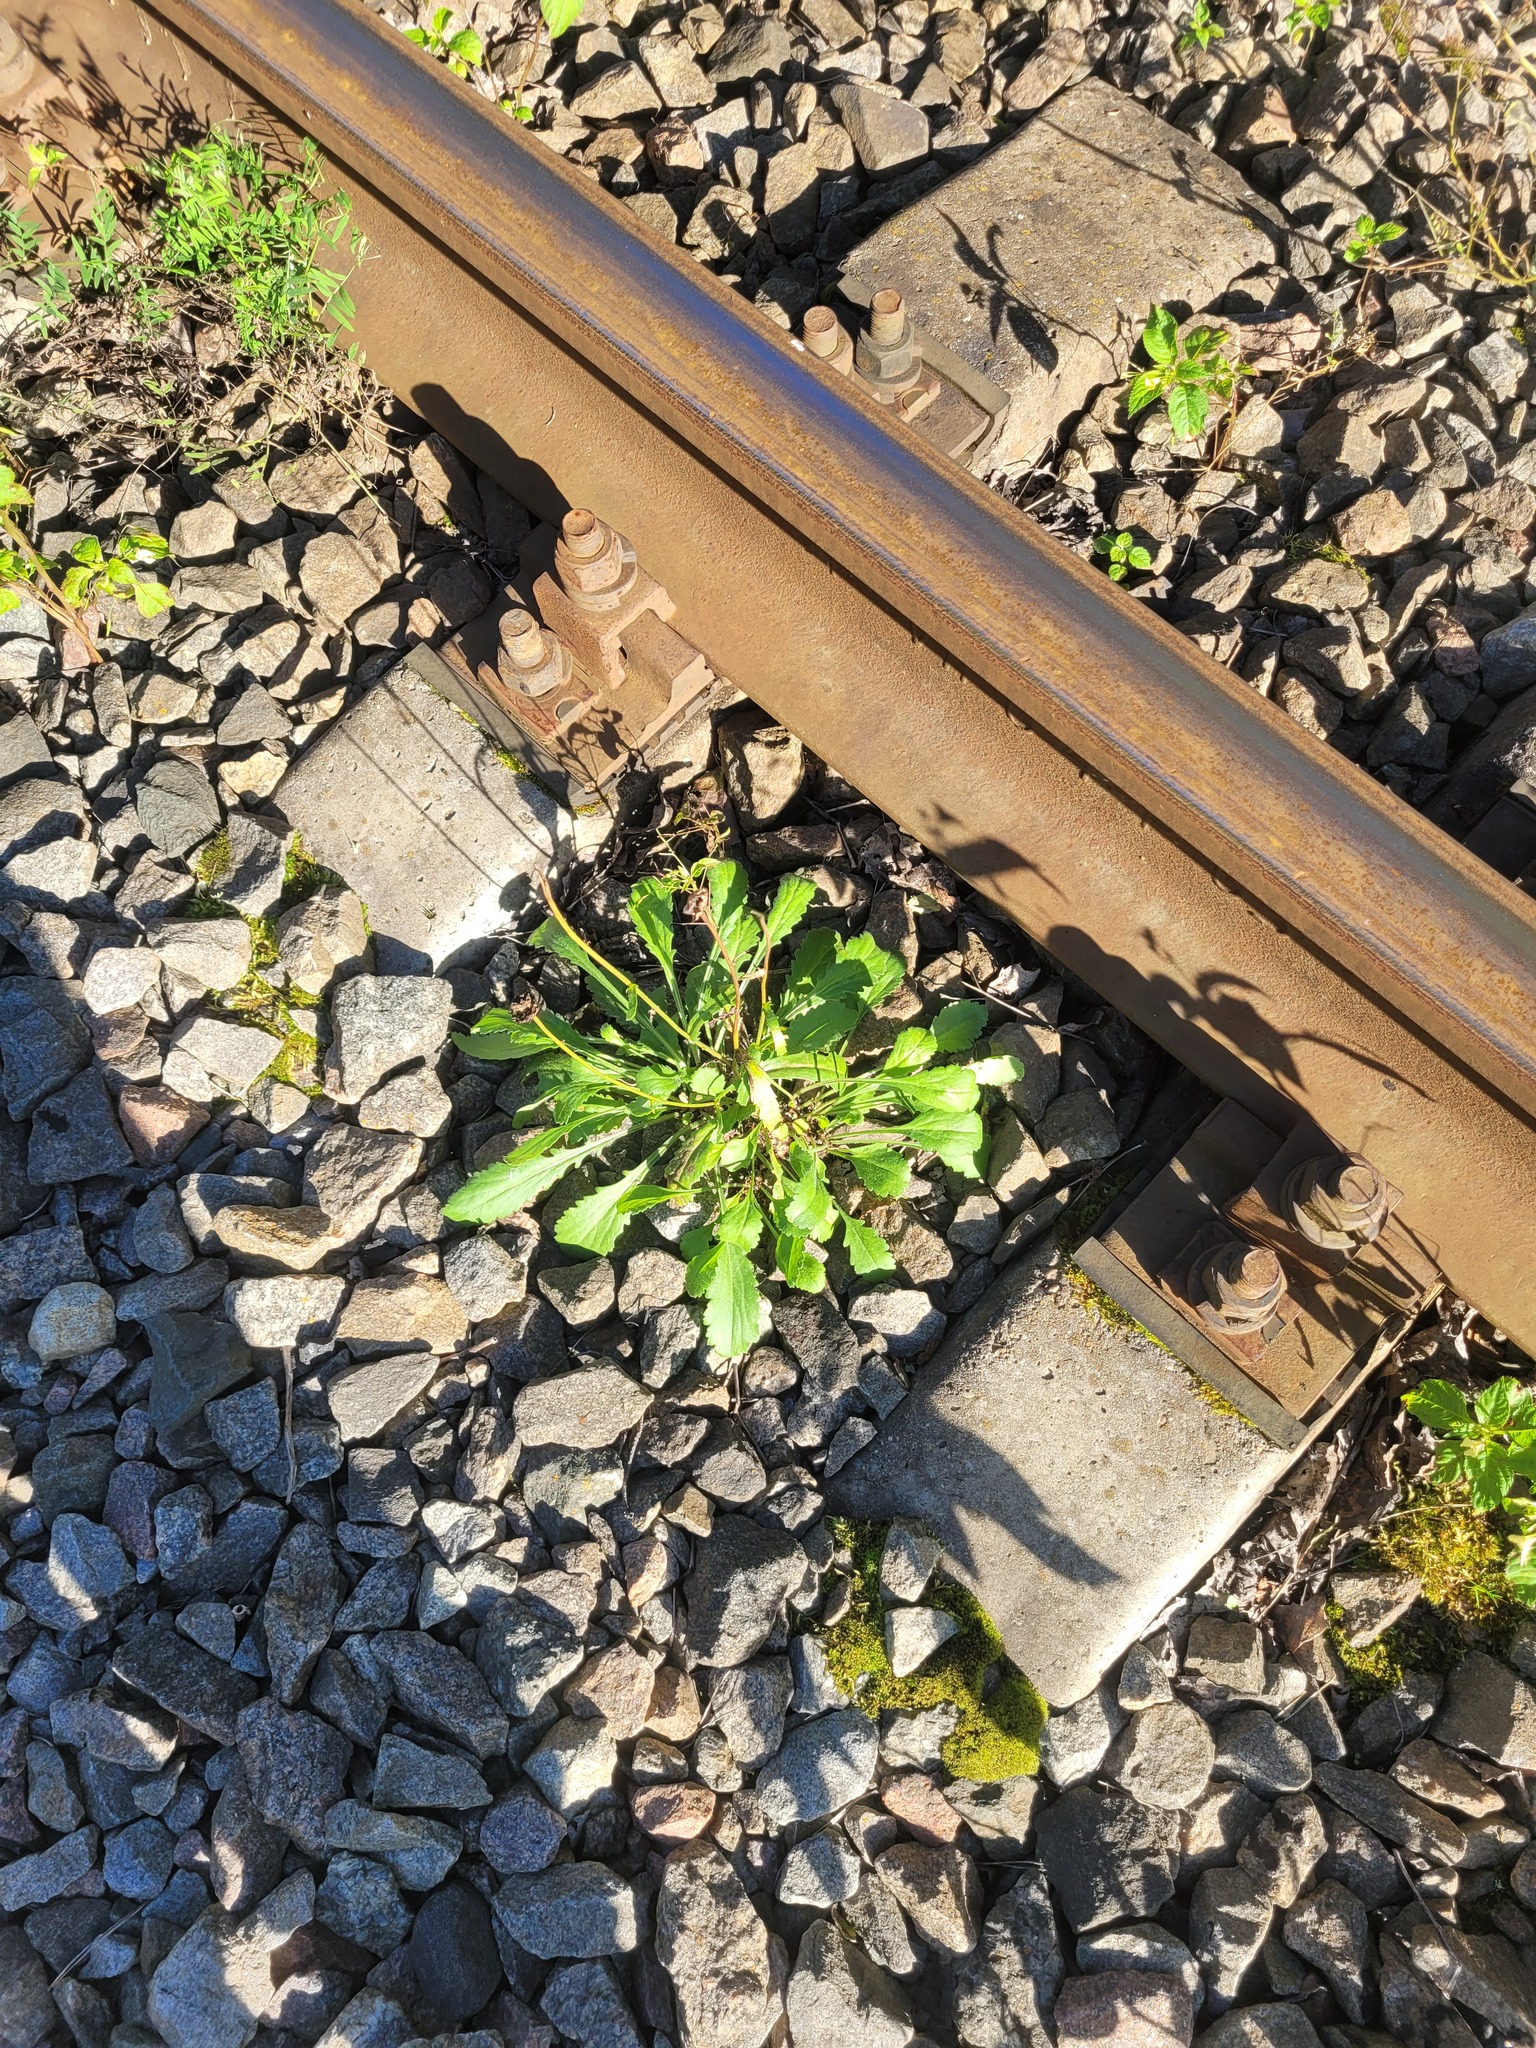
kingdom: Plantae
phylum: Tracheophyta
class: Magnoliopsida
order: Asterales
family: Asteraceae
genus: Leucanthemum
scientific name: Leucanthemum vulgare
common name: Oxeye daisy
